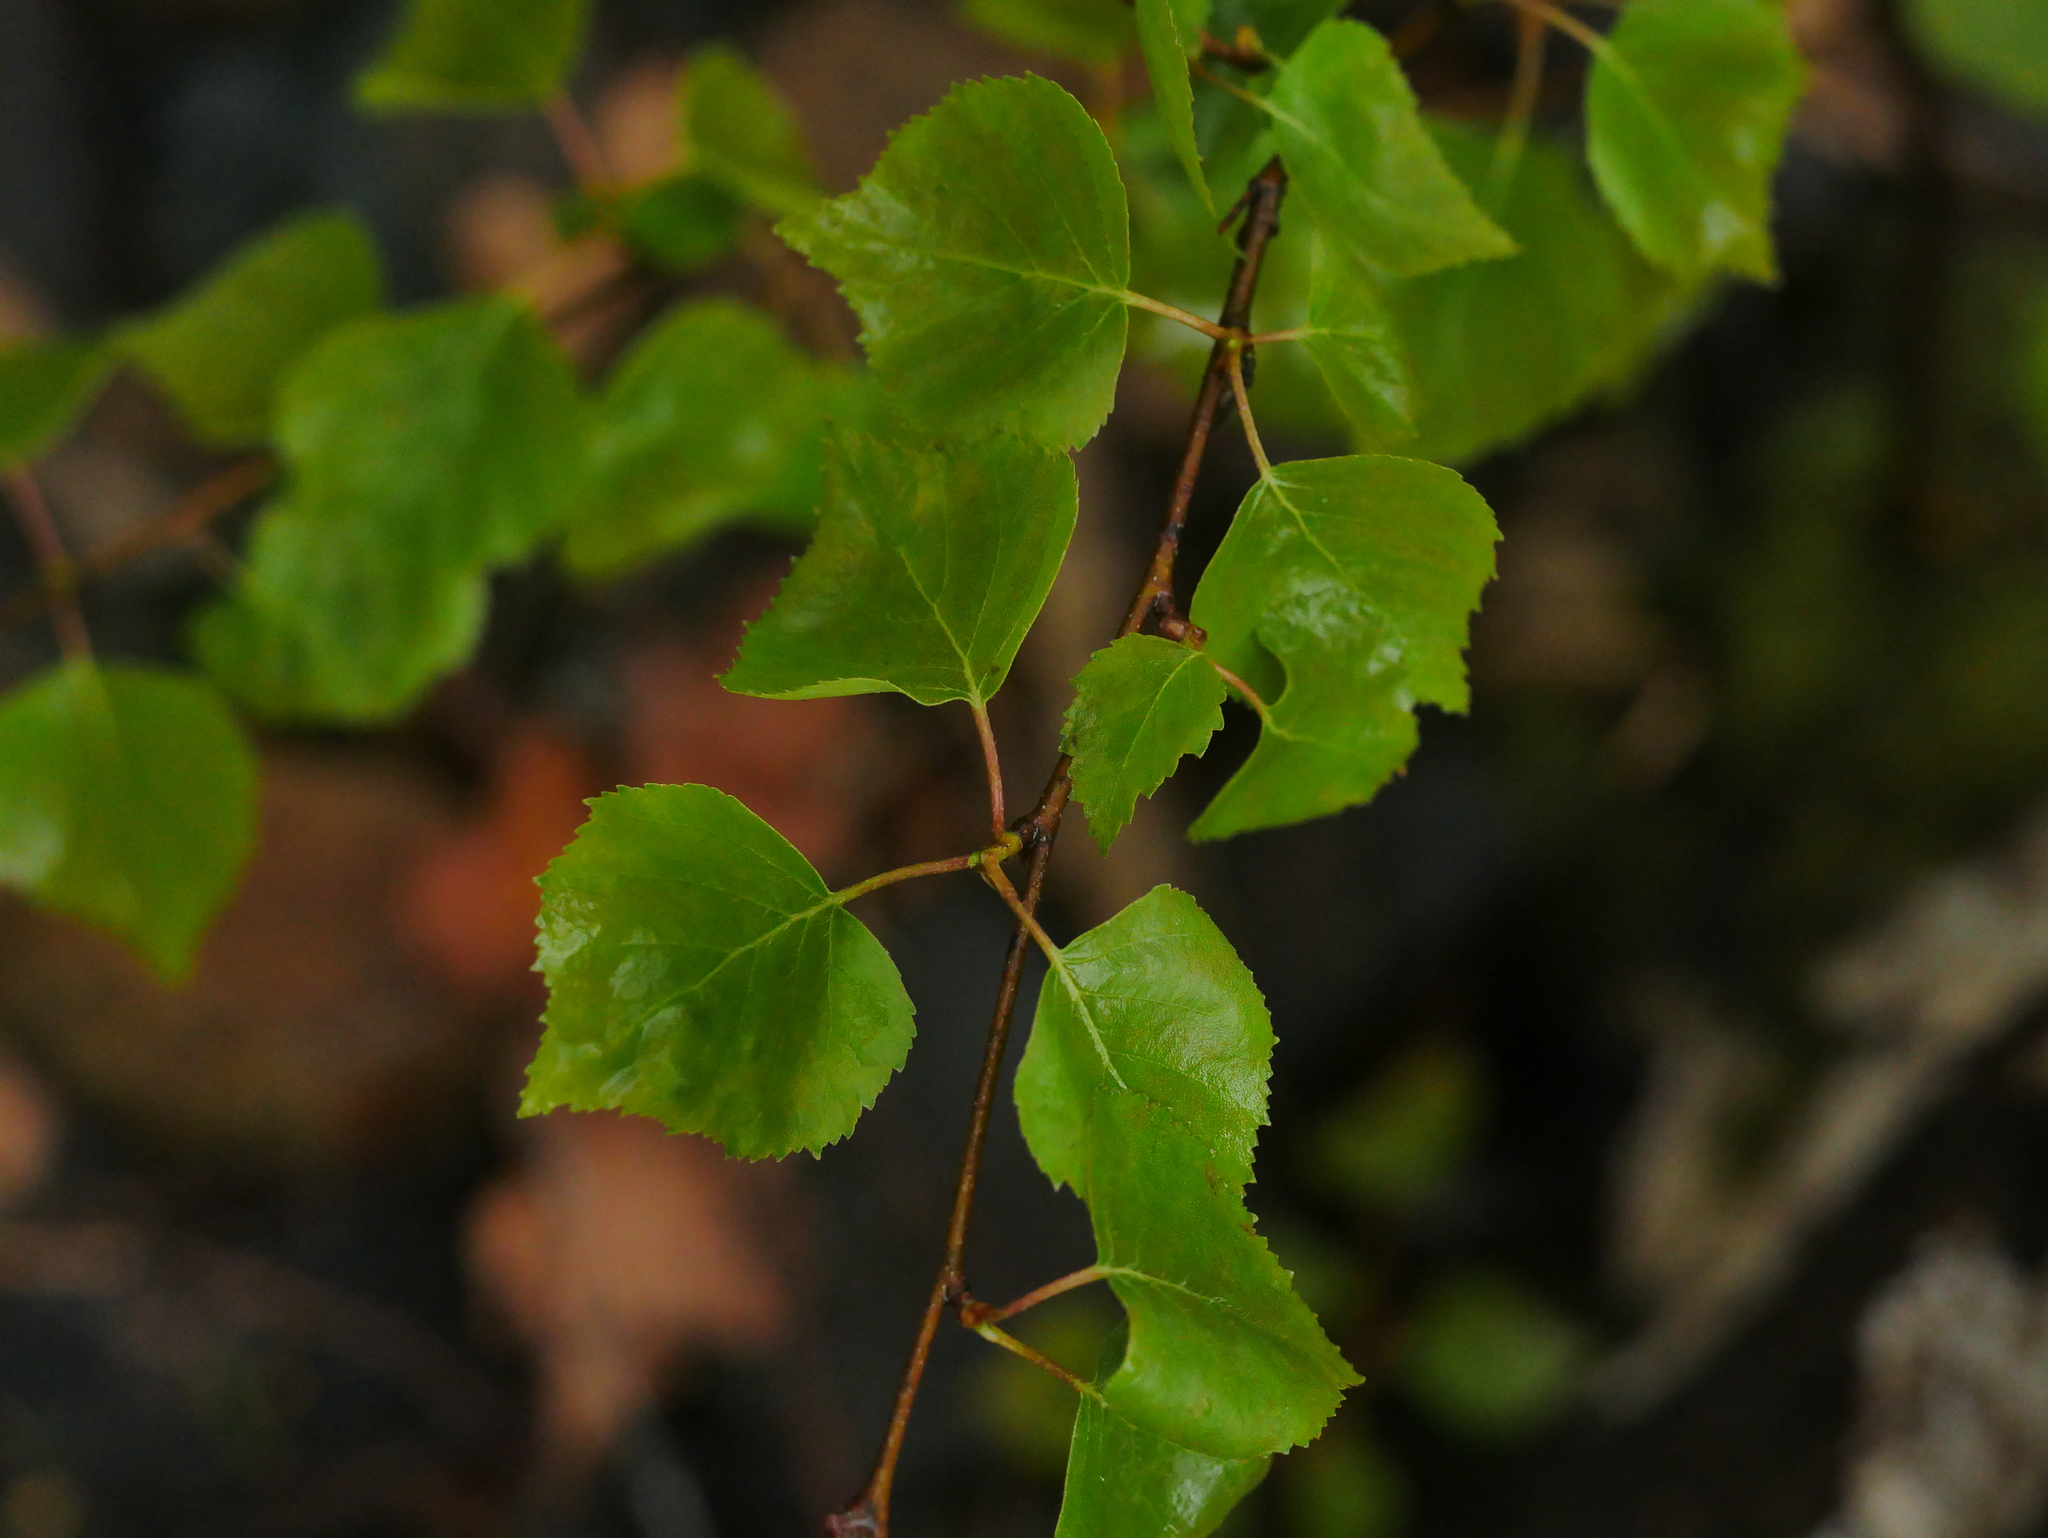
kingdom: Plantae
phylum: Tracheophyta
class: Magnoliopsida
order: Fagales
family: Betulaceae
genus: Betula
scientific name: Betula pendula
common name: Silver birch
